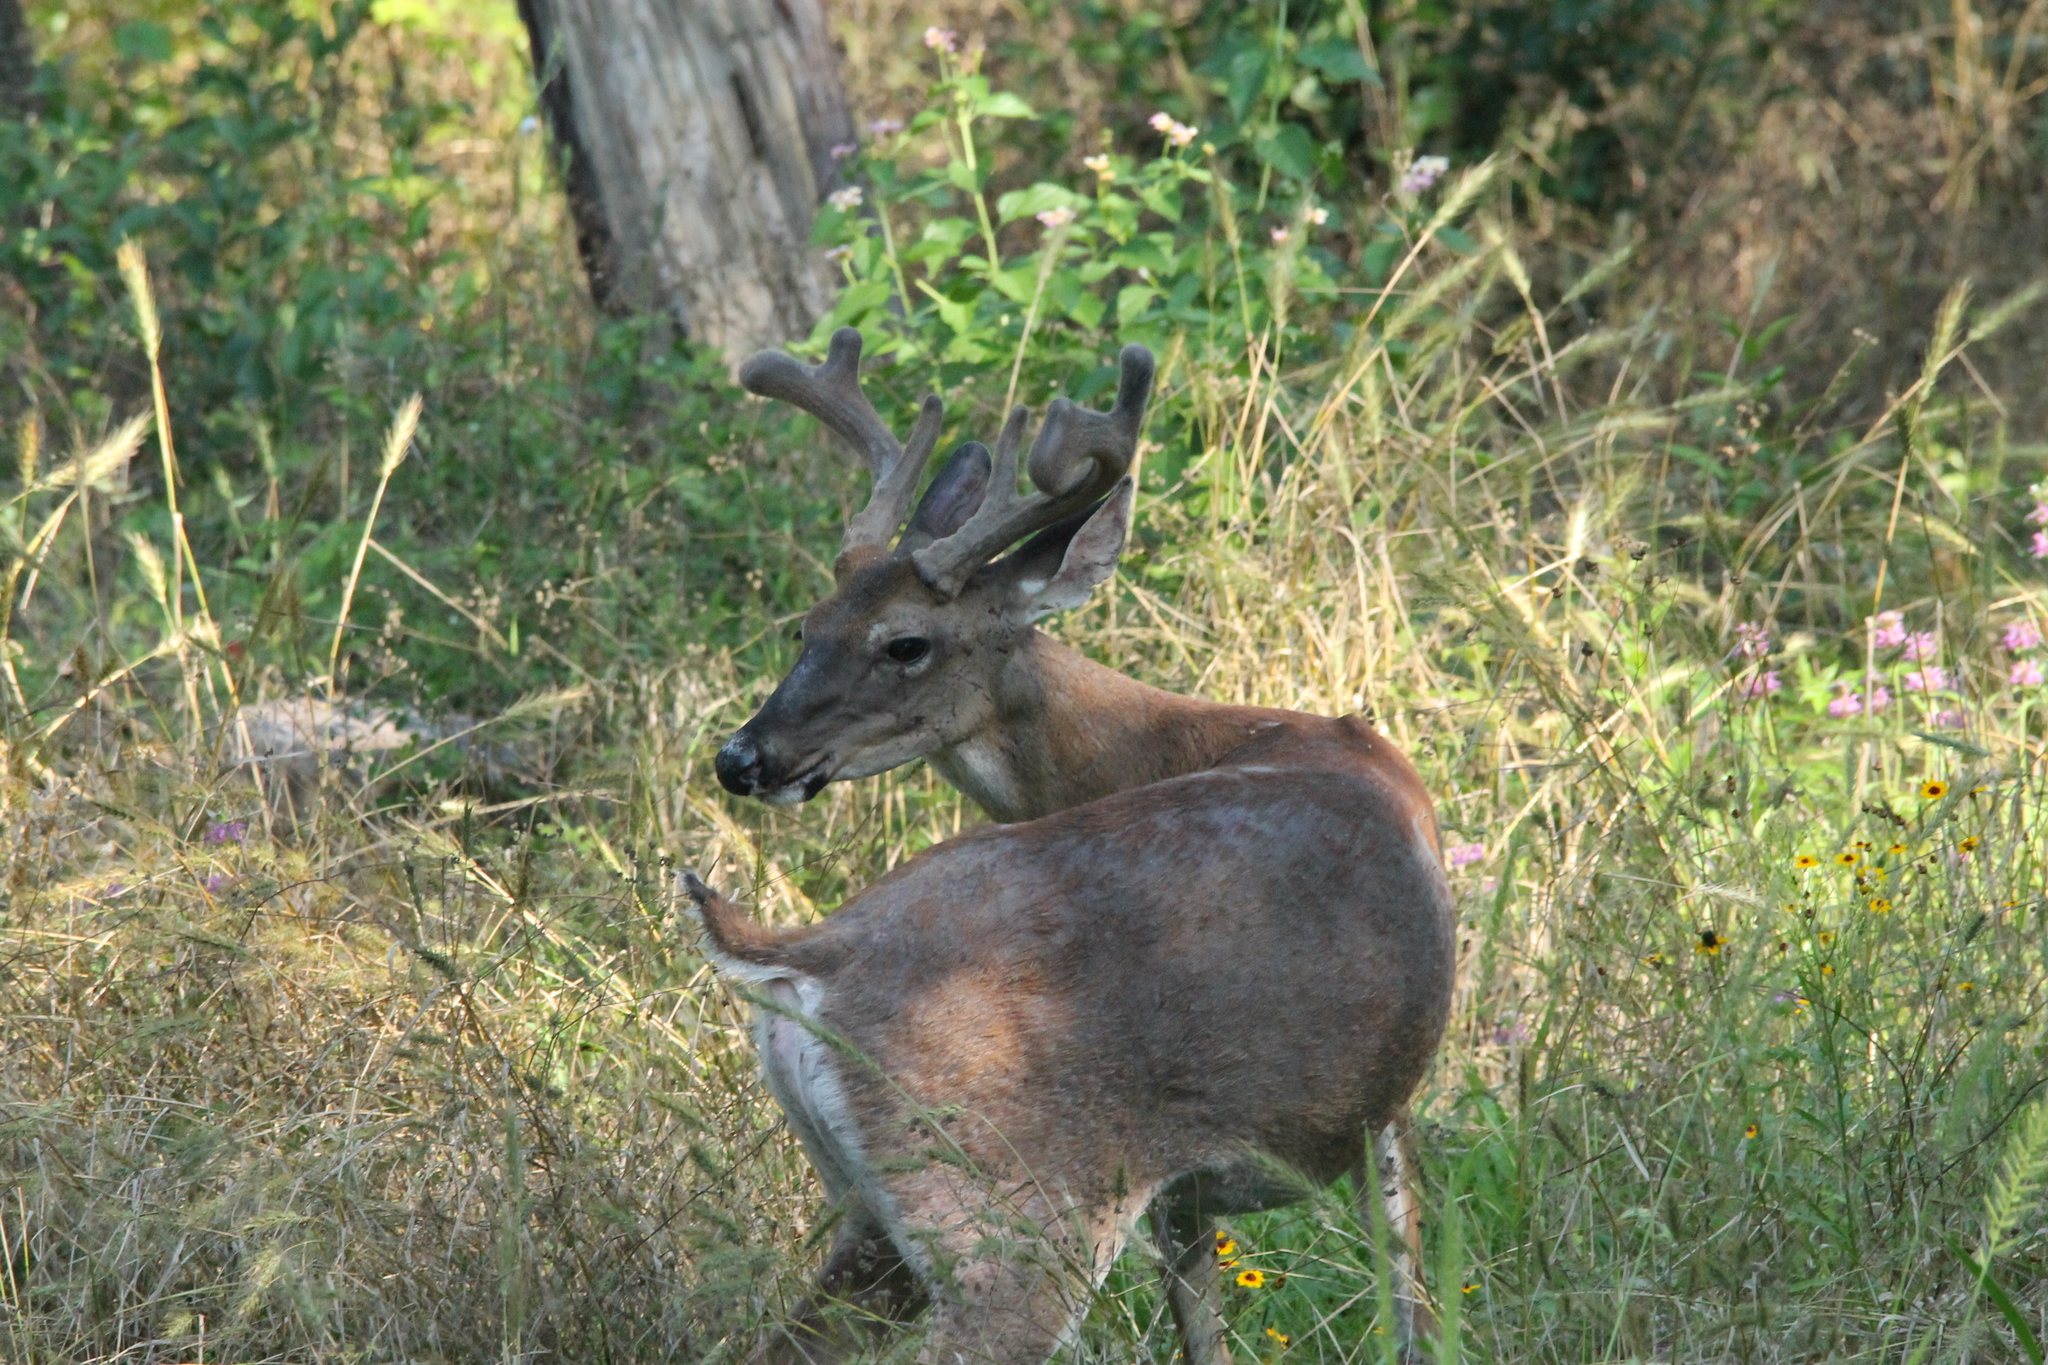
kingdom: Animalia
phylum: Chordata
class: Mammalia
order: Artiodactyla
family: Cervidae
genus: Odocoileus
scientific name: Odocoileus virginianus
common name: White-tailed deer
